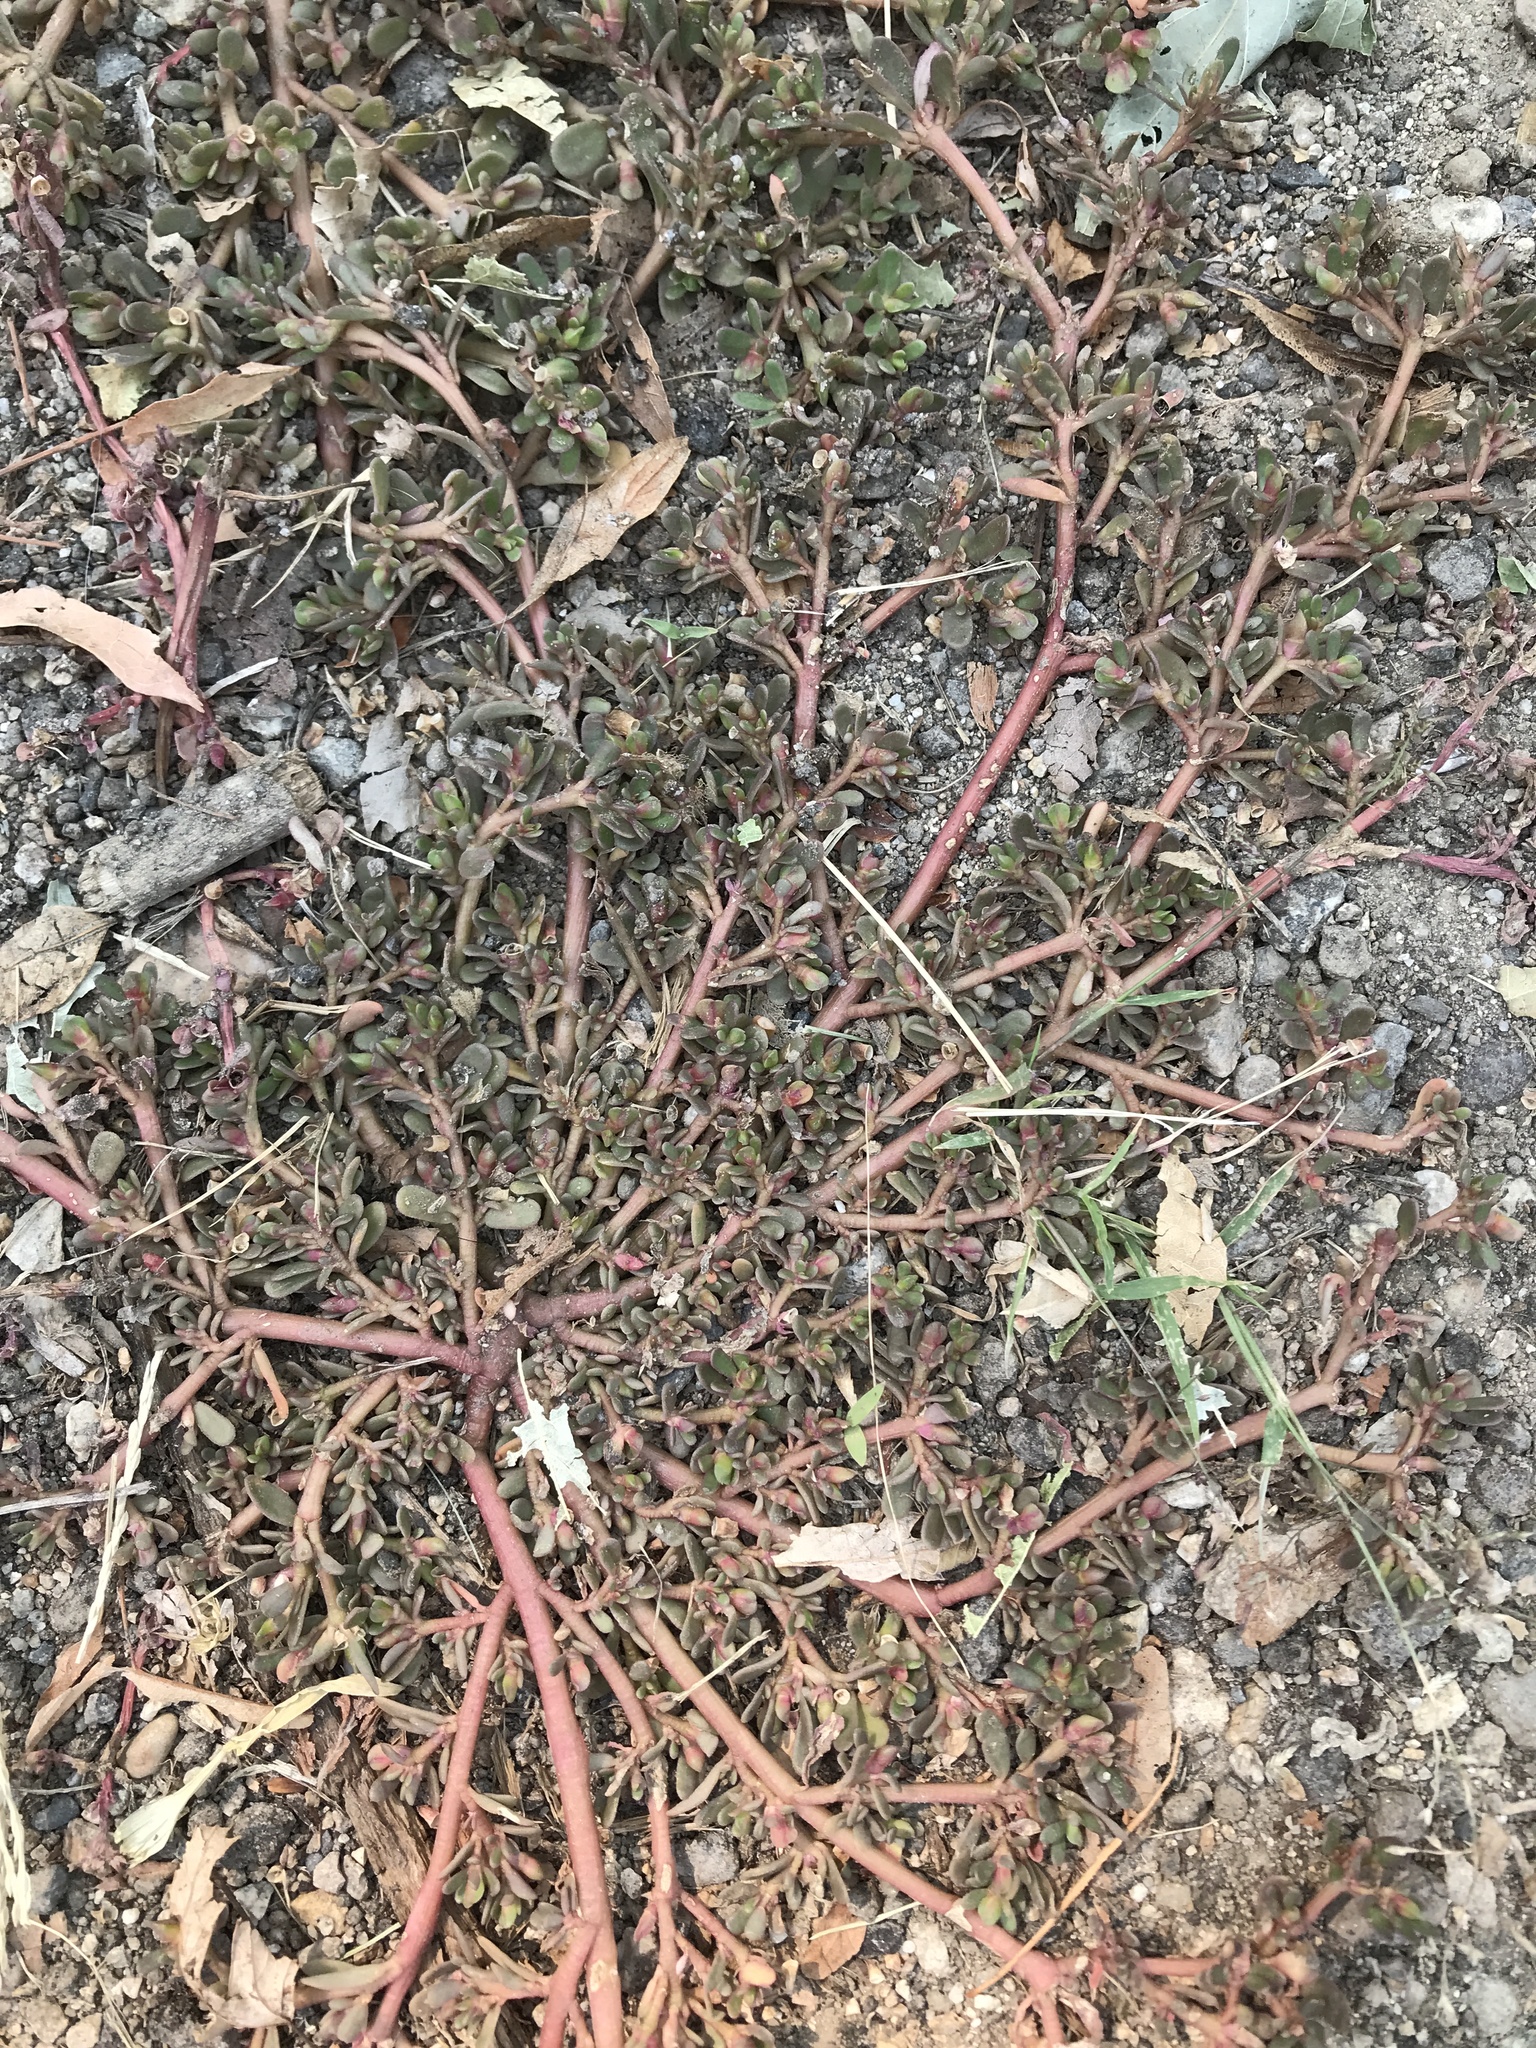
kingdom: Plantae
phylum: Tracheophyta
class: Magnoliopsida
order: Caryophyllales
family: Portulacaceae
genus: Portulaca
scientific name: Portulaca oleracea
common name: Common purslane
